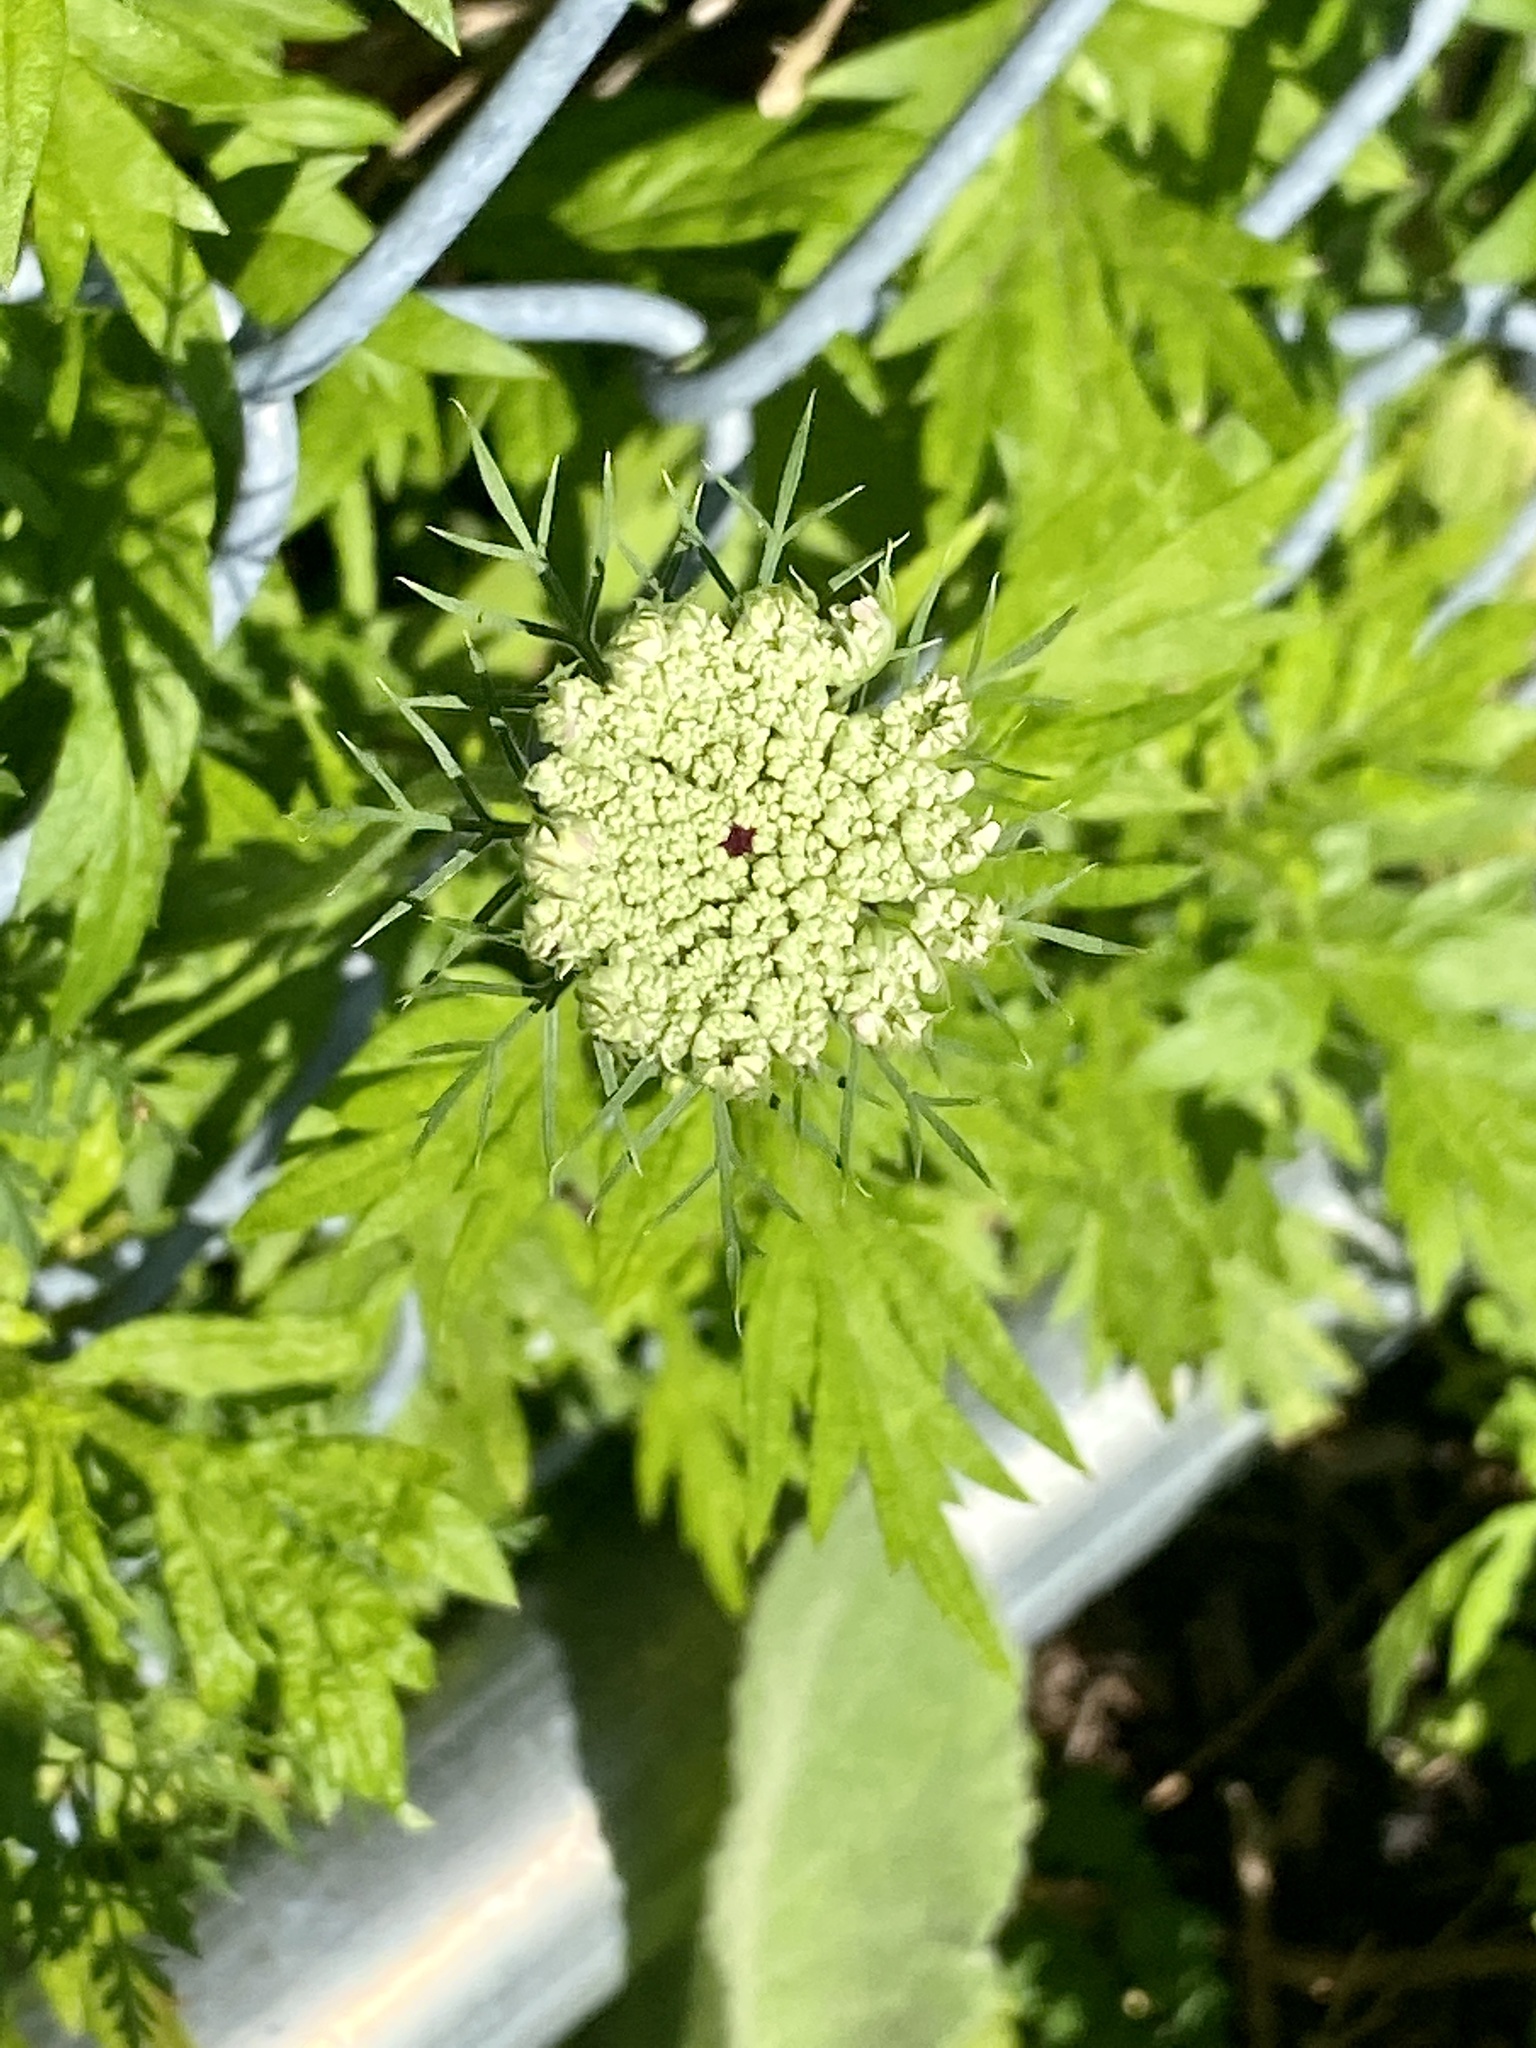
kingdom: Plantae
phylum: Tracheophyta
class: Magnoliopsida
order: Apiales
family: Apiaceae
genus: Daucus
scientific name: Daucus carota
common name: Wild carrot
